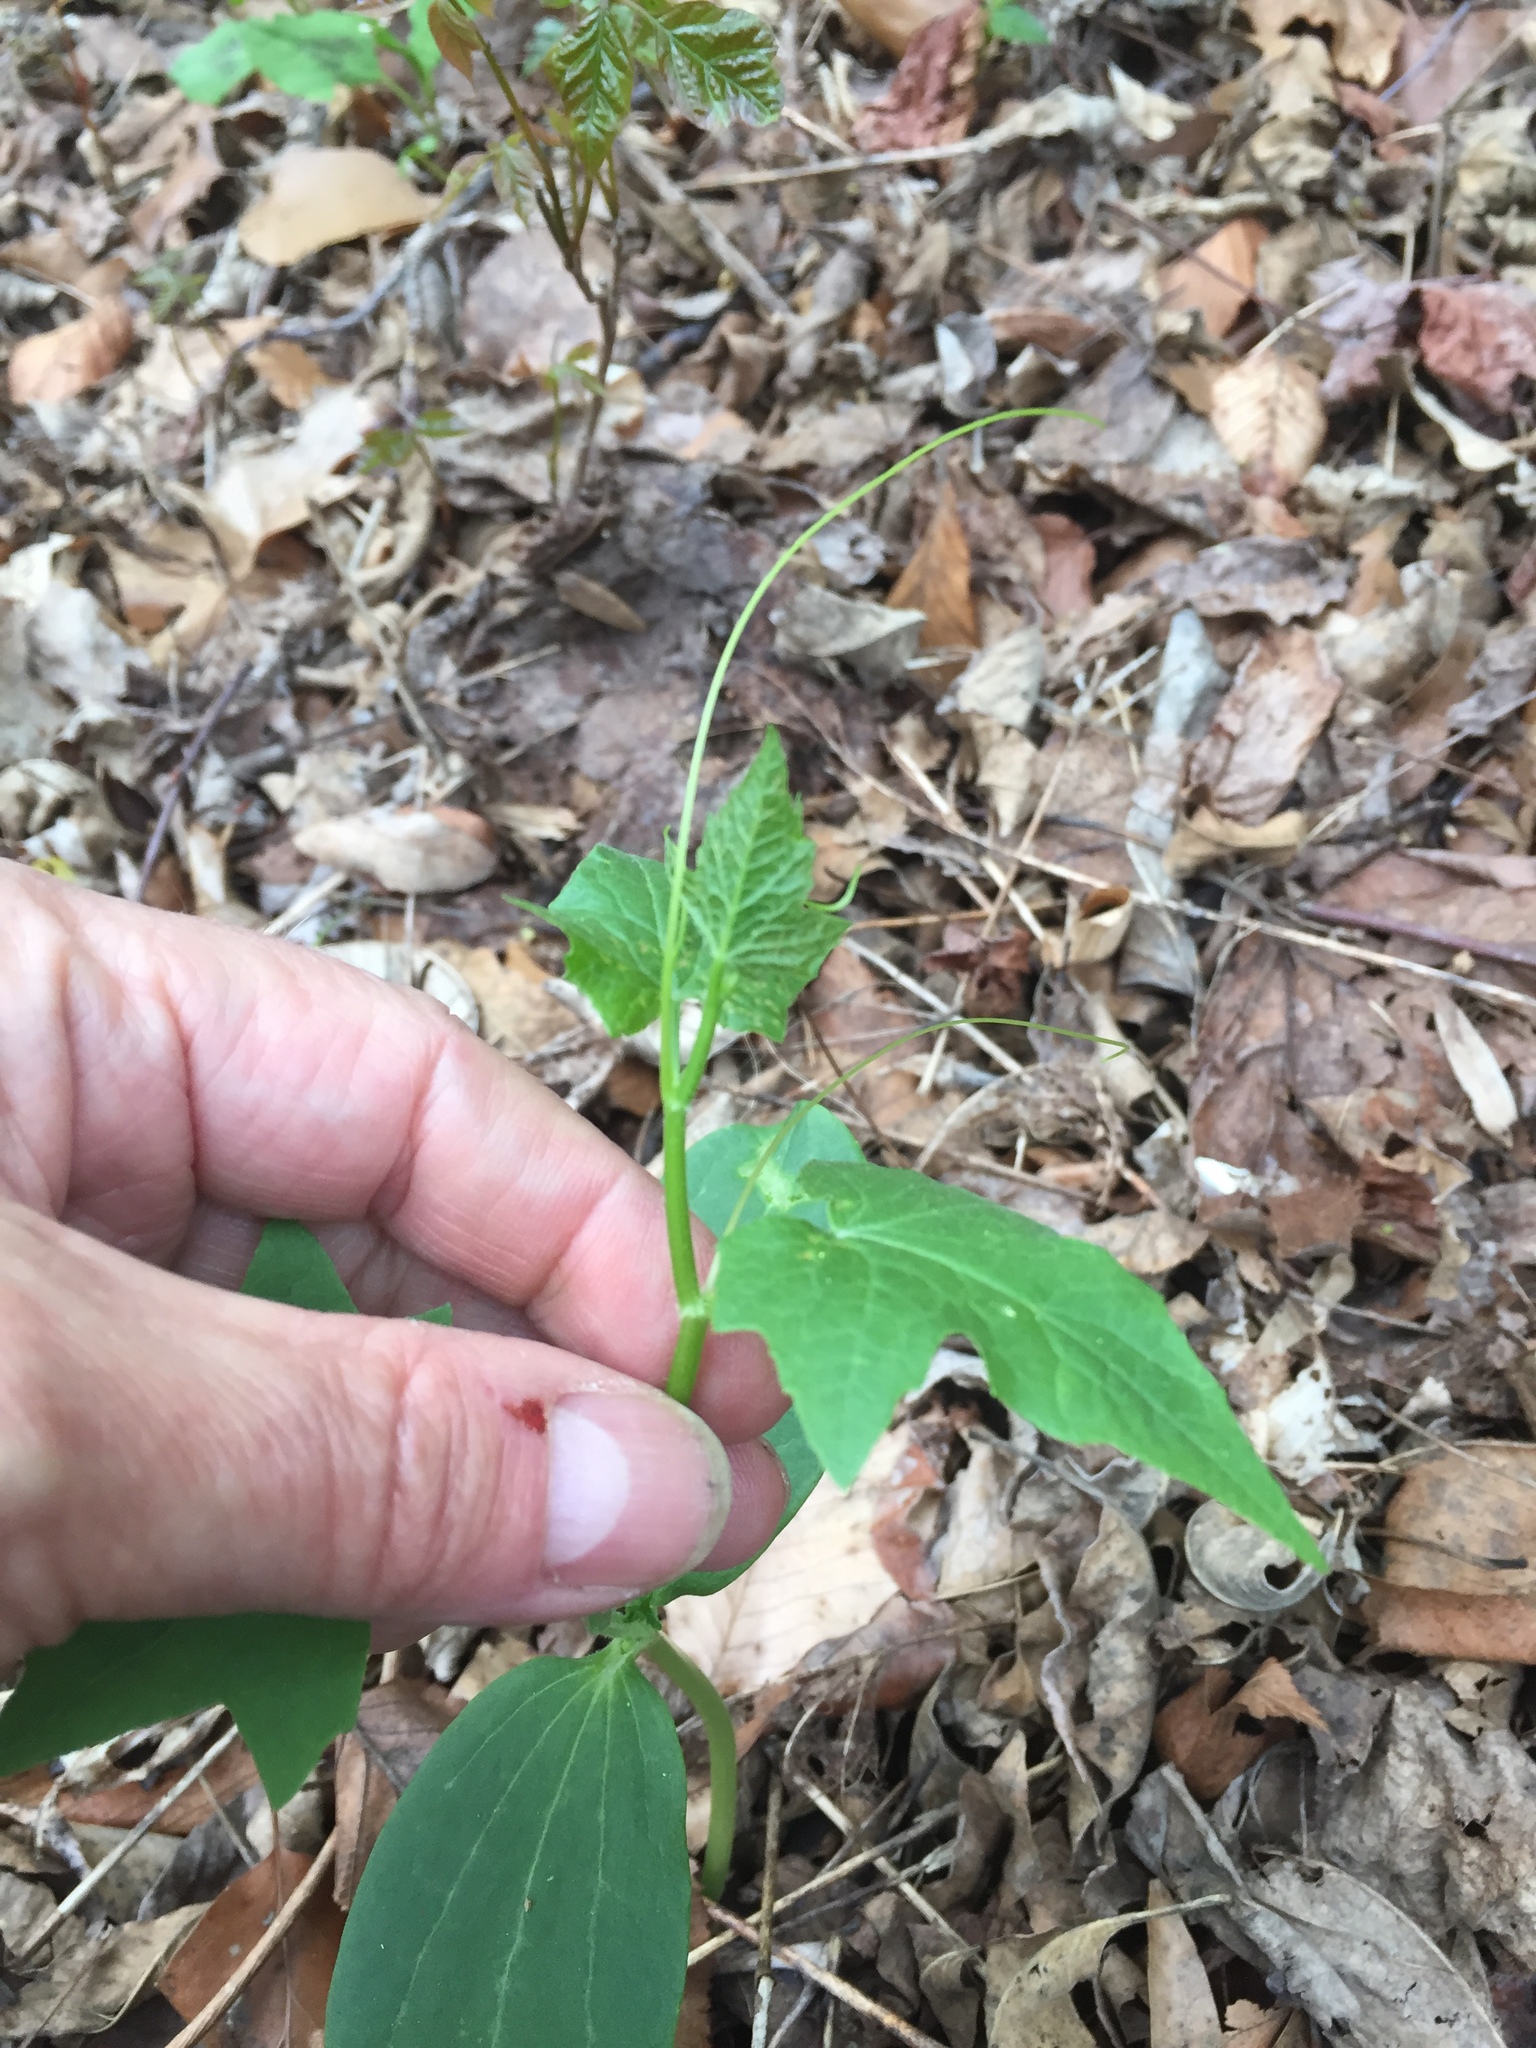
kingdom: Plantae
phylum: Tracheophyta
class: Magnoliopsida
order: Cucurbitales
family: Cucurbitaceae
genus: Sicyos
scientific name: Sicyos angulatus
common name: Angled burr cucumber
